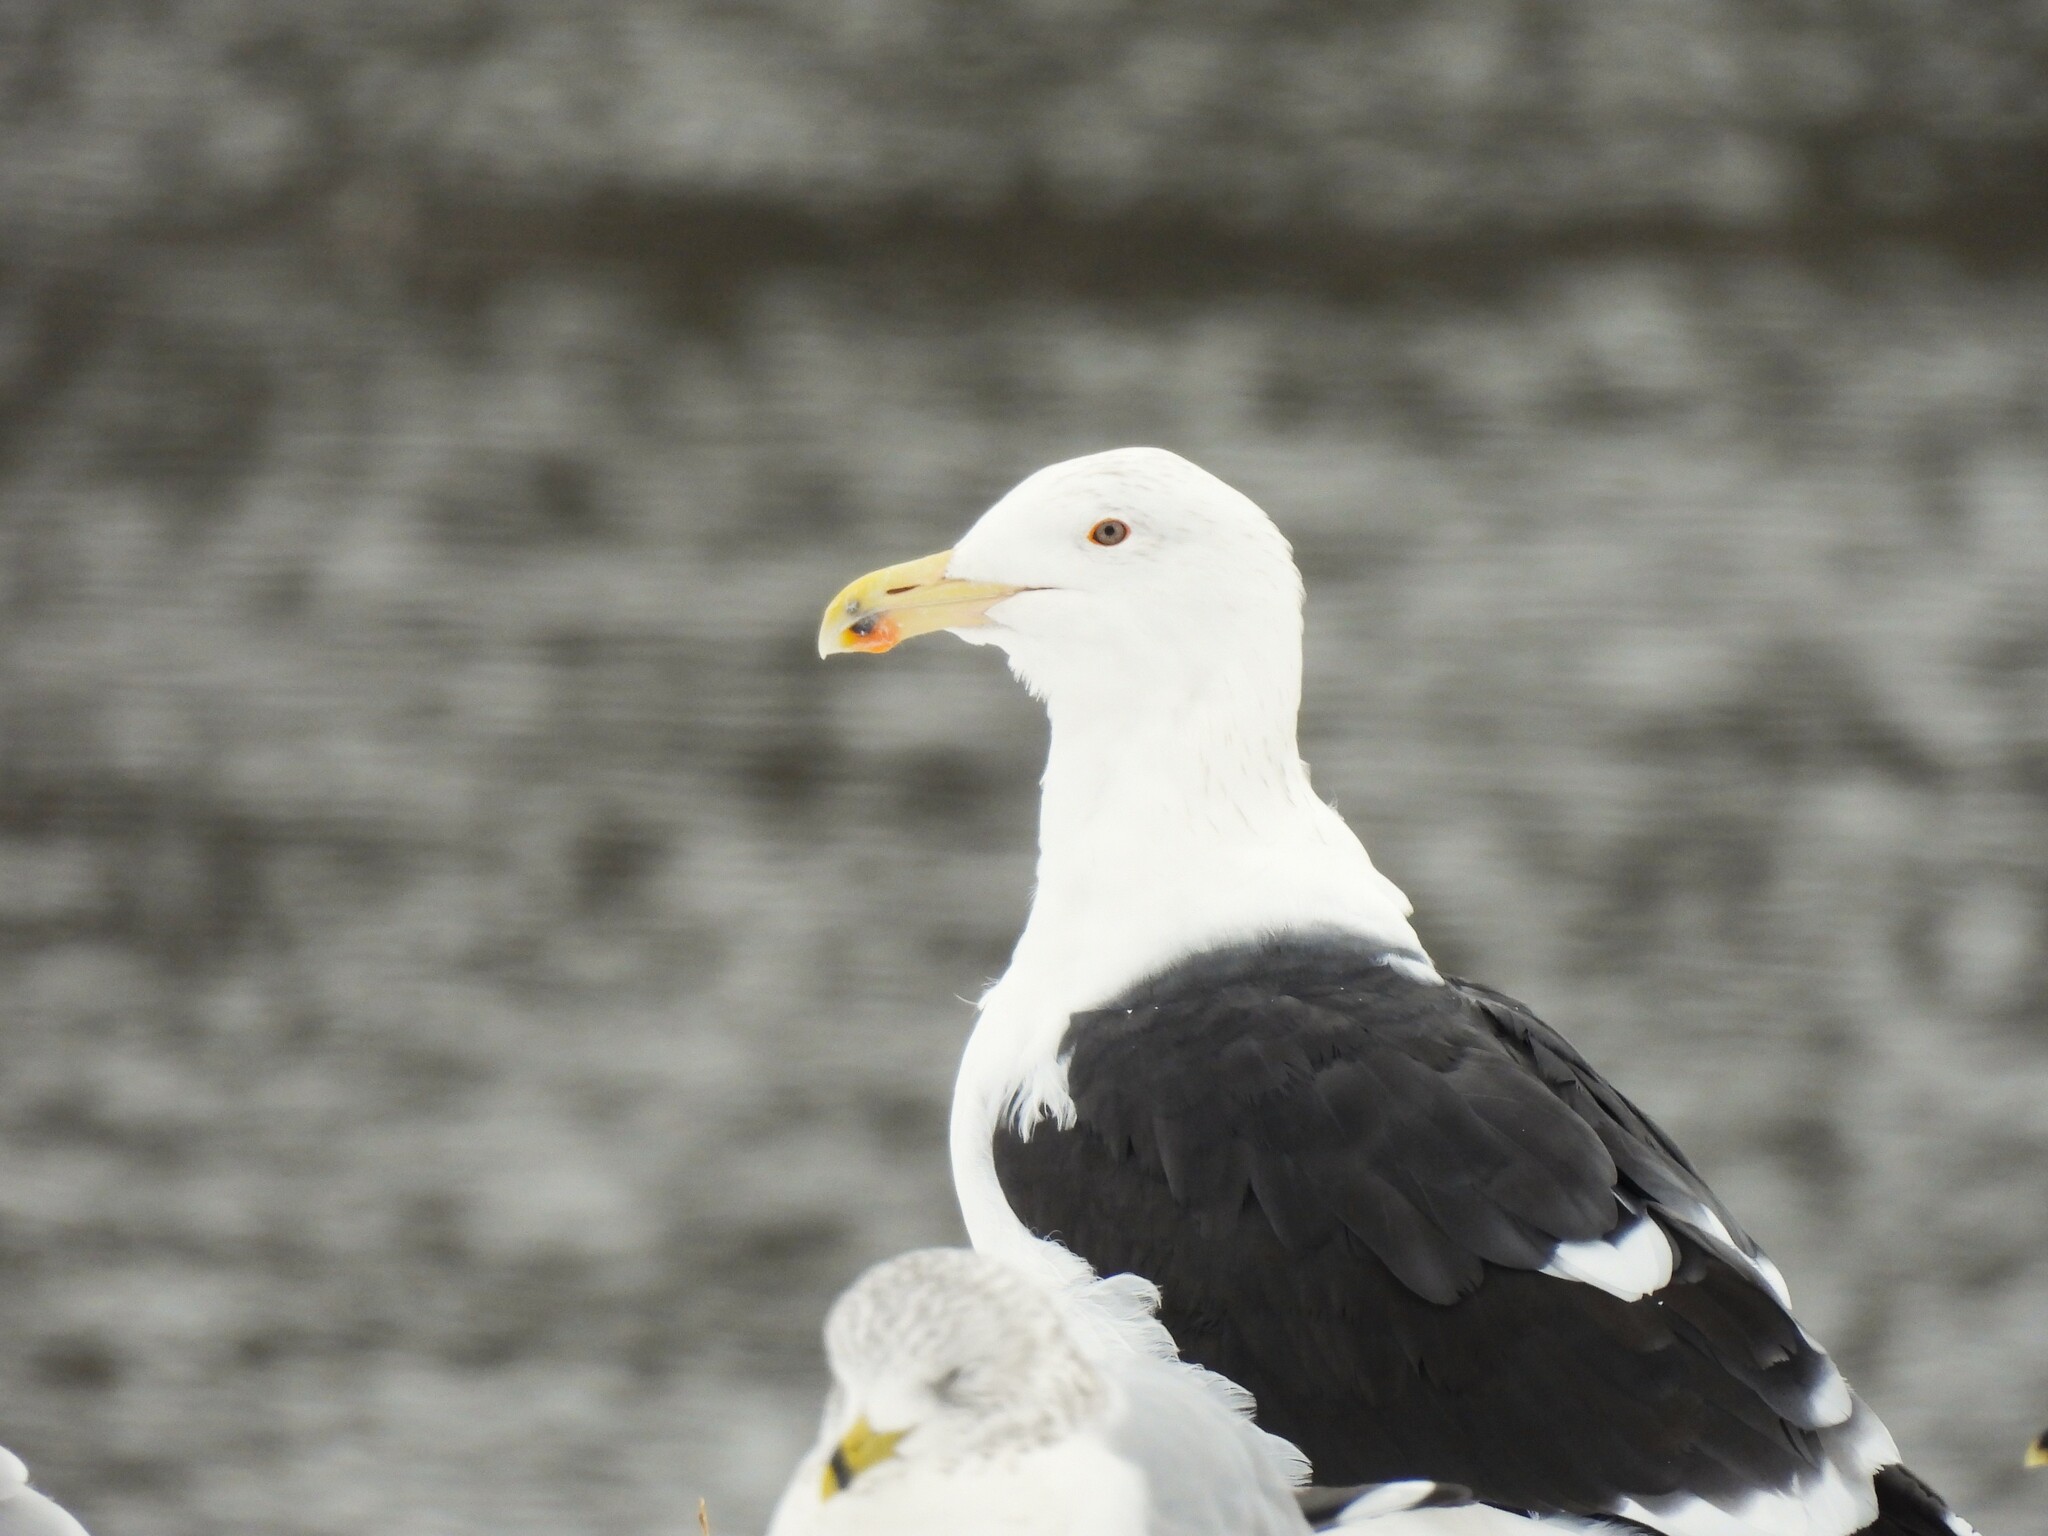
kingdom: Animalia
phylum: Chordata
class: Aves
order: Charadriiformes
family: Laridae
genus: Larus
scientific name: Larus marinus
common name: Great black-backed gull
